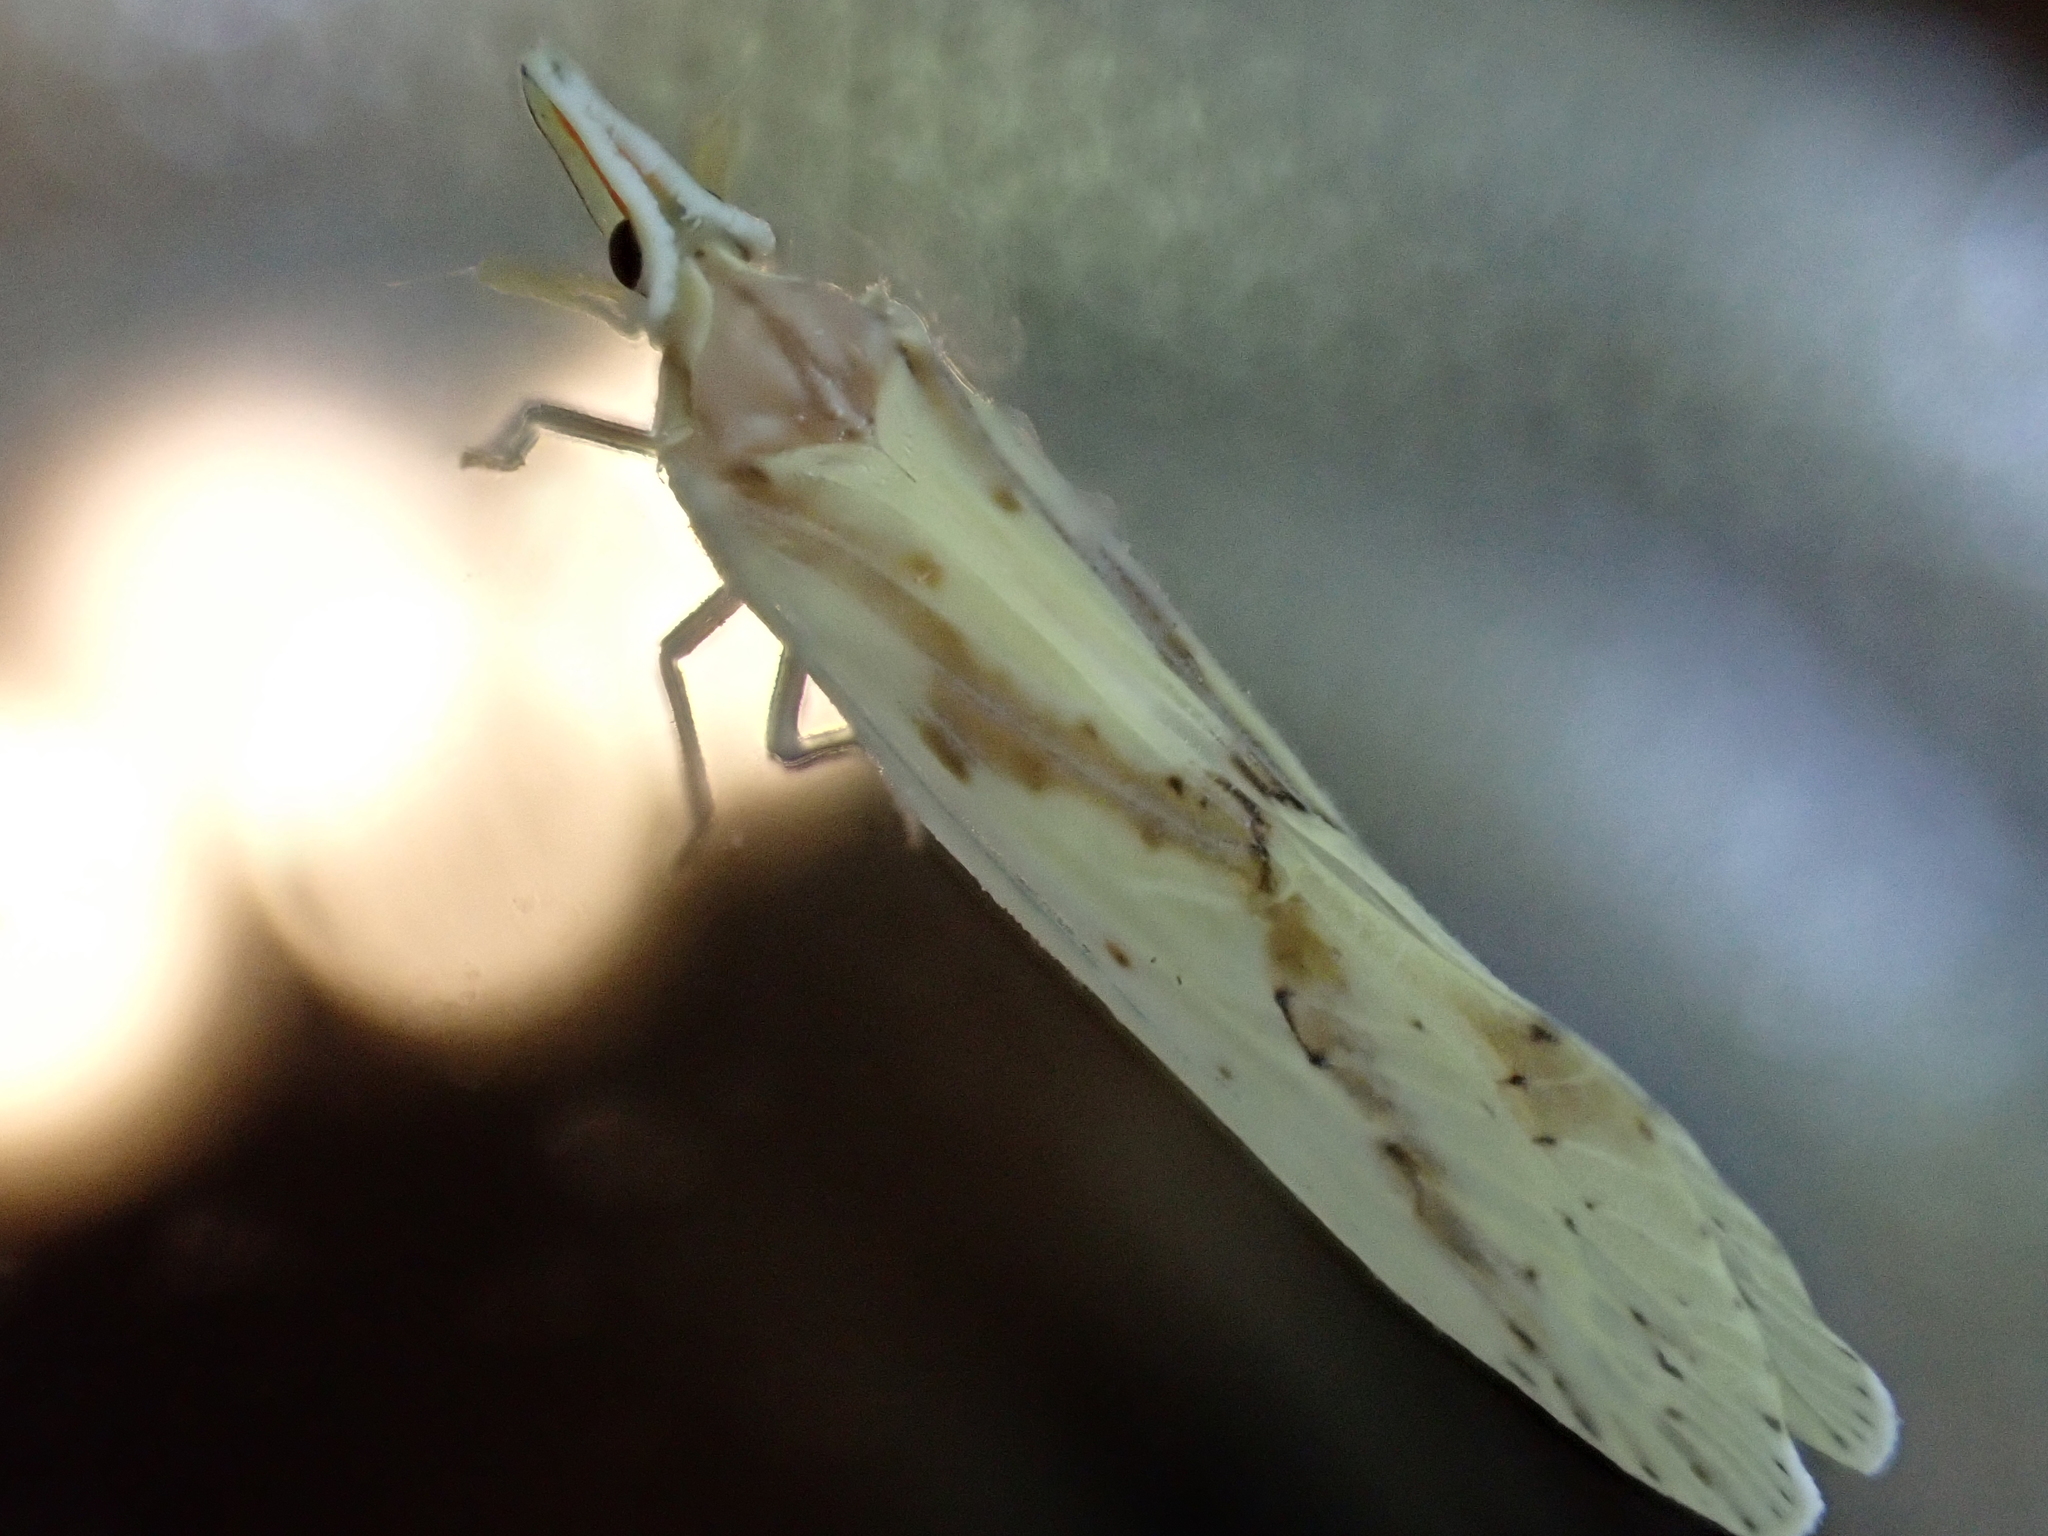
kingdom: Animalia
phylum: Arthropoda
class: Insecta
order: Hemiptera
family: Derbidae
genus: Otiocerus
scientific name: Otiocerus wolfii
